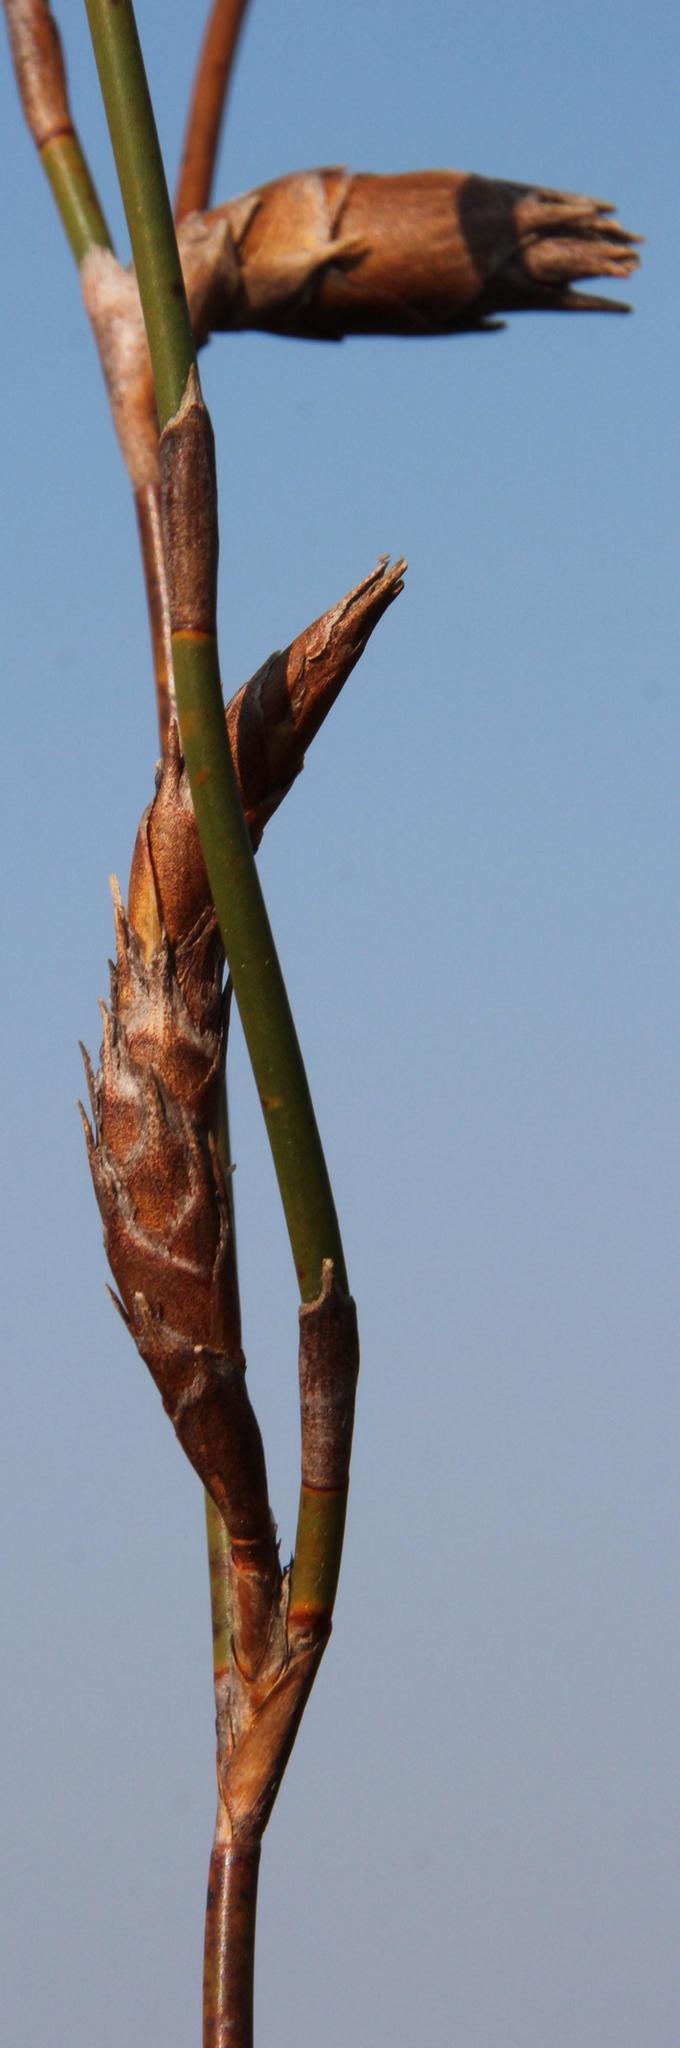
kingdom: Plantae
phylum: Tracheophyta
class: Liliopsida
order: Poales
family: Restionaceae
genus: Restio
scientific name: Restio dispar
